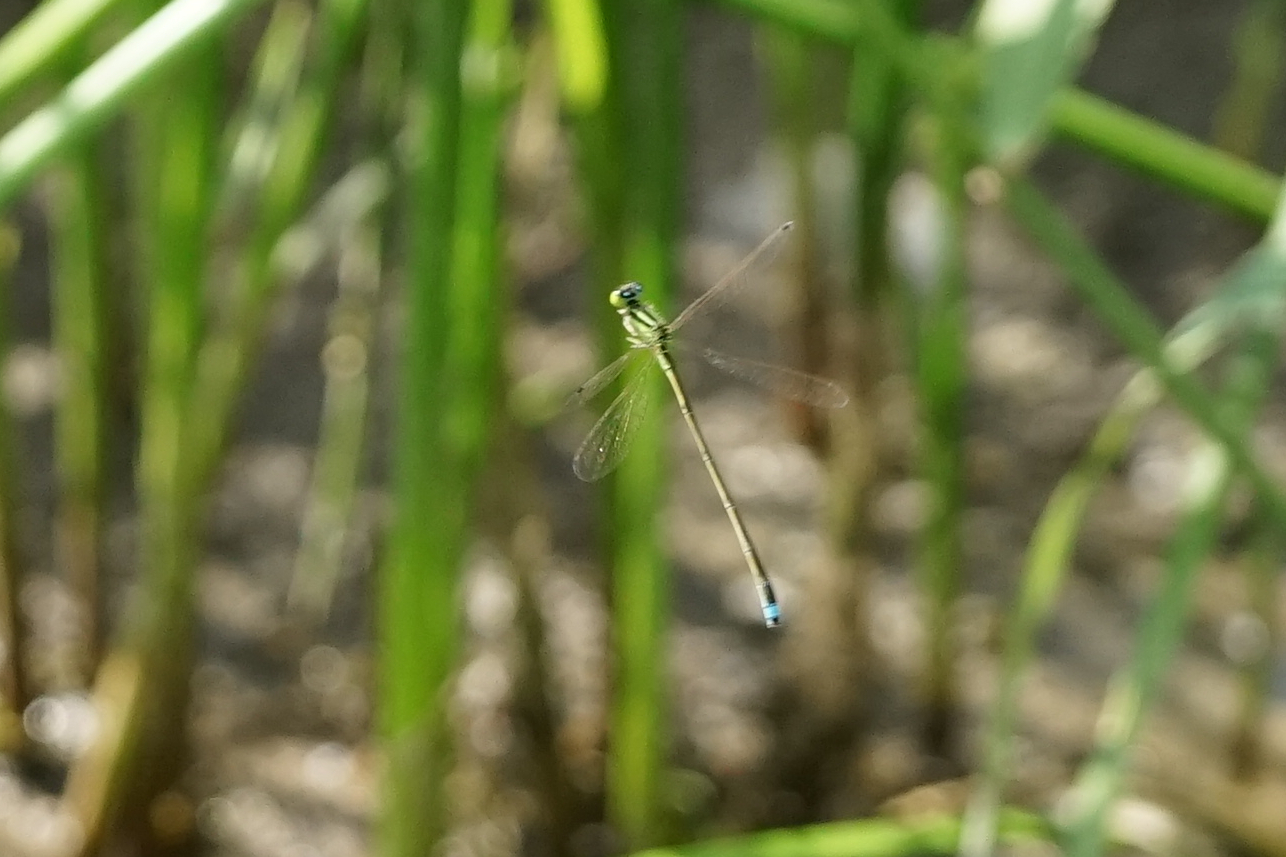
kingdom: Animalia
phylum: Arthropoda
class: Insecta
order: Odonata
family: Coenagrionidae
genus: Ischnura
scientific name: Ischnura asiatica
